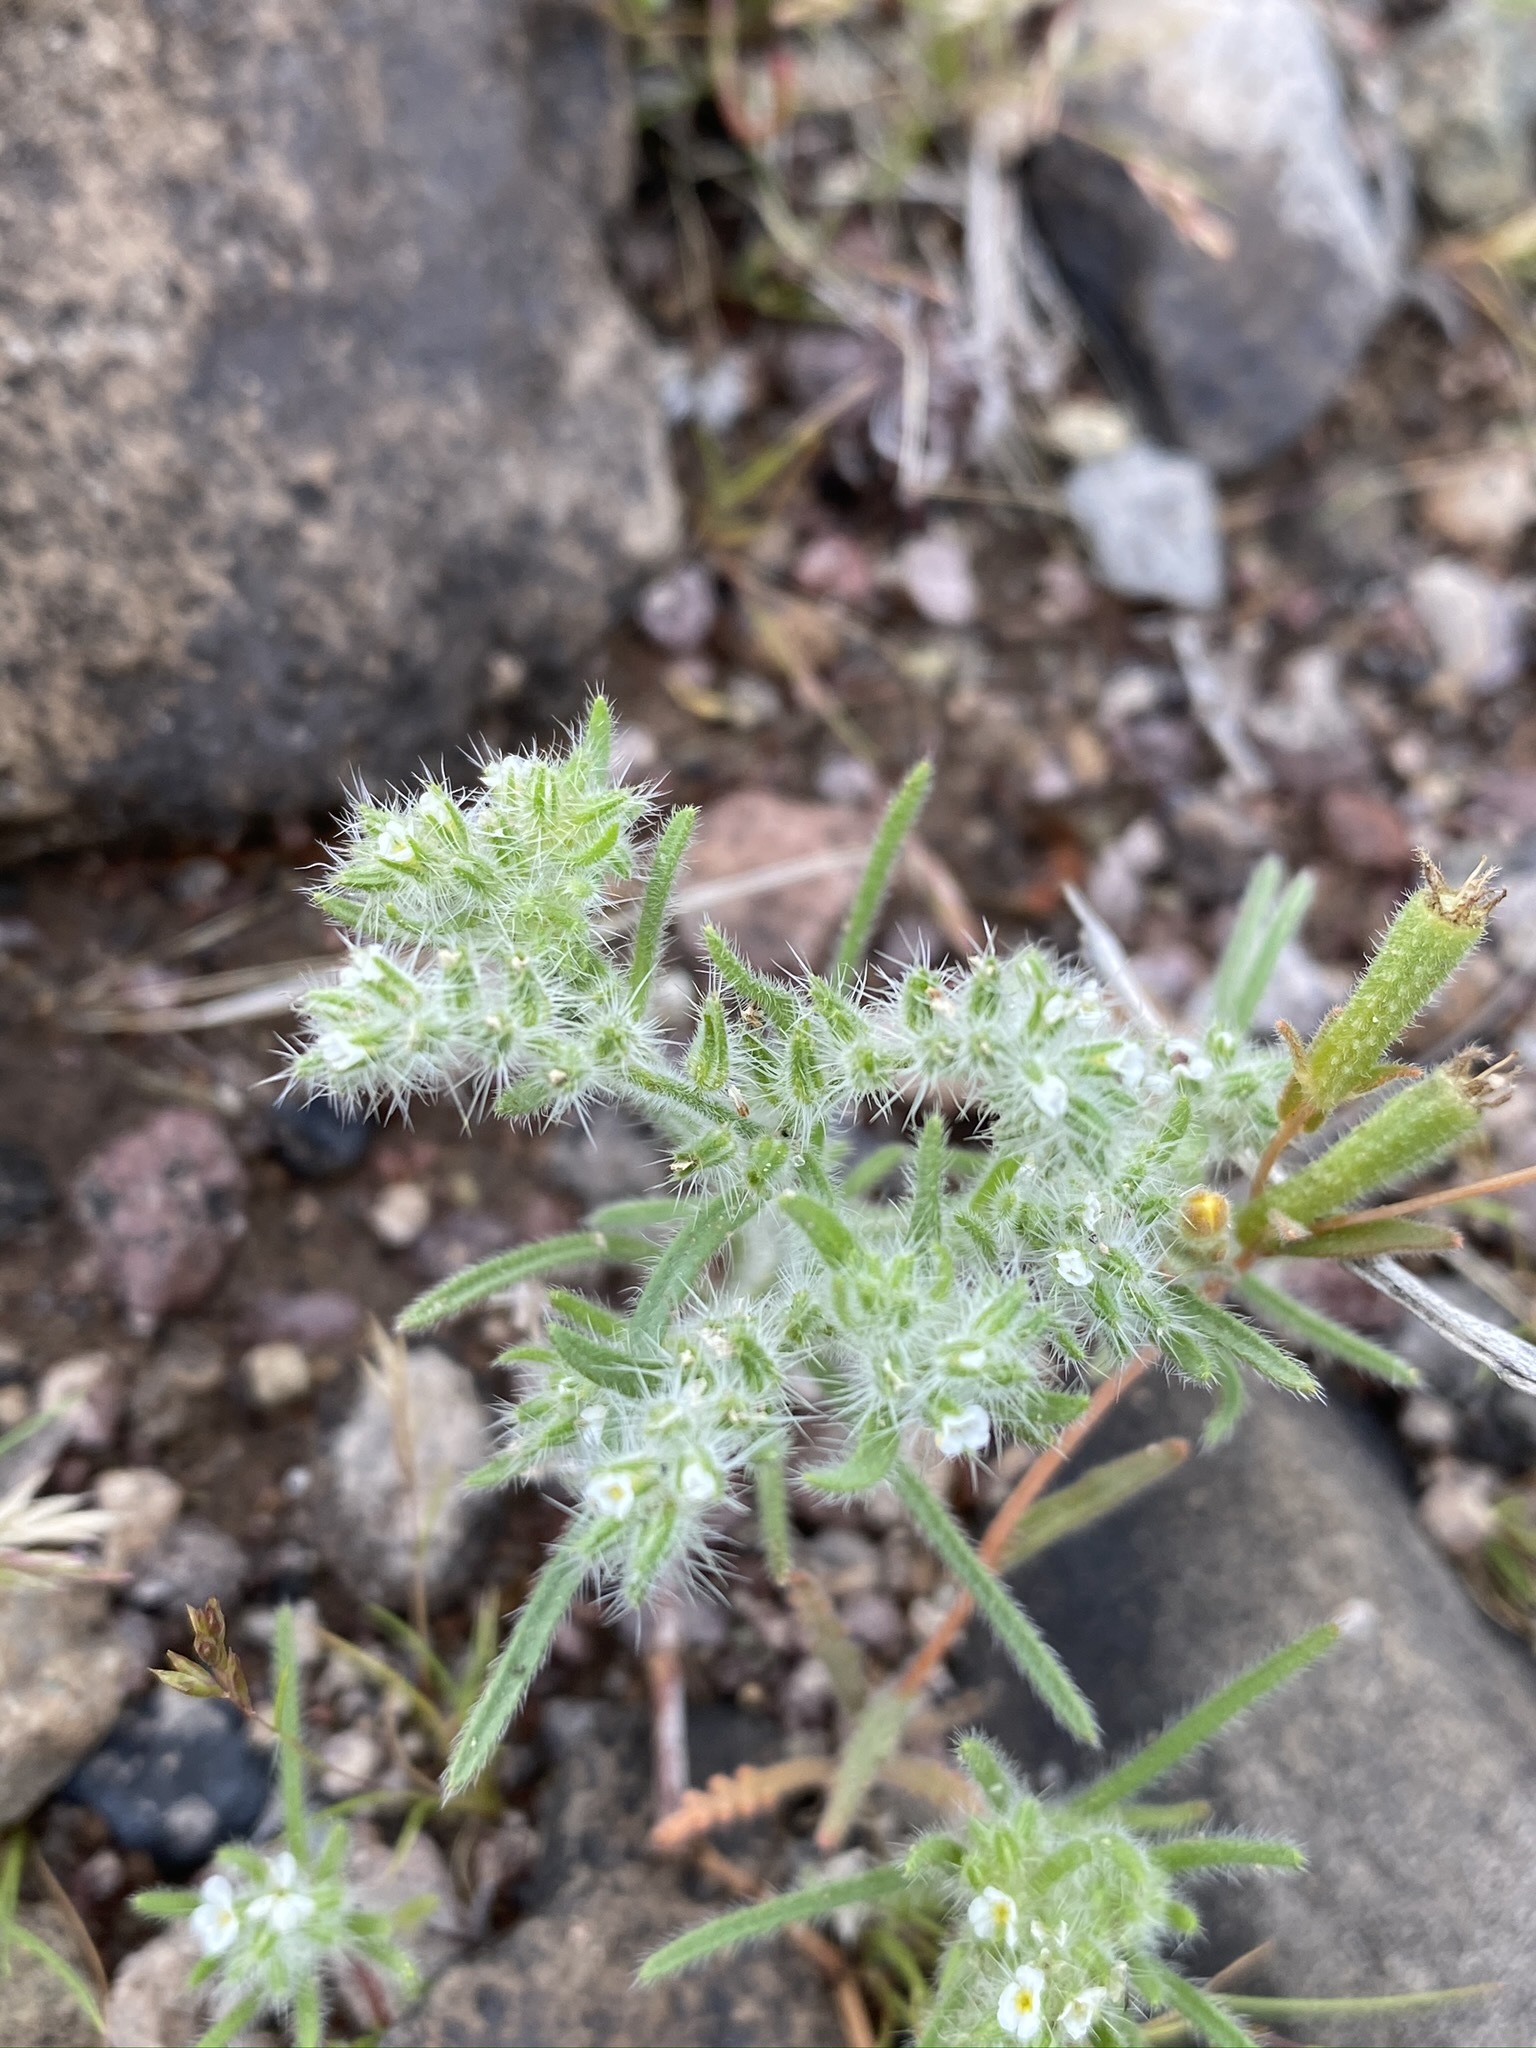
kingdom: Plantae
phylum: Tracheophyta
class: Magnoliopsida
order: Boraginales
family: Boraginaceae
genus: Johnstonella
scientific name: Johnstonella angustifolia
